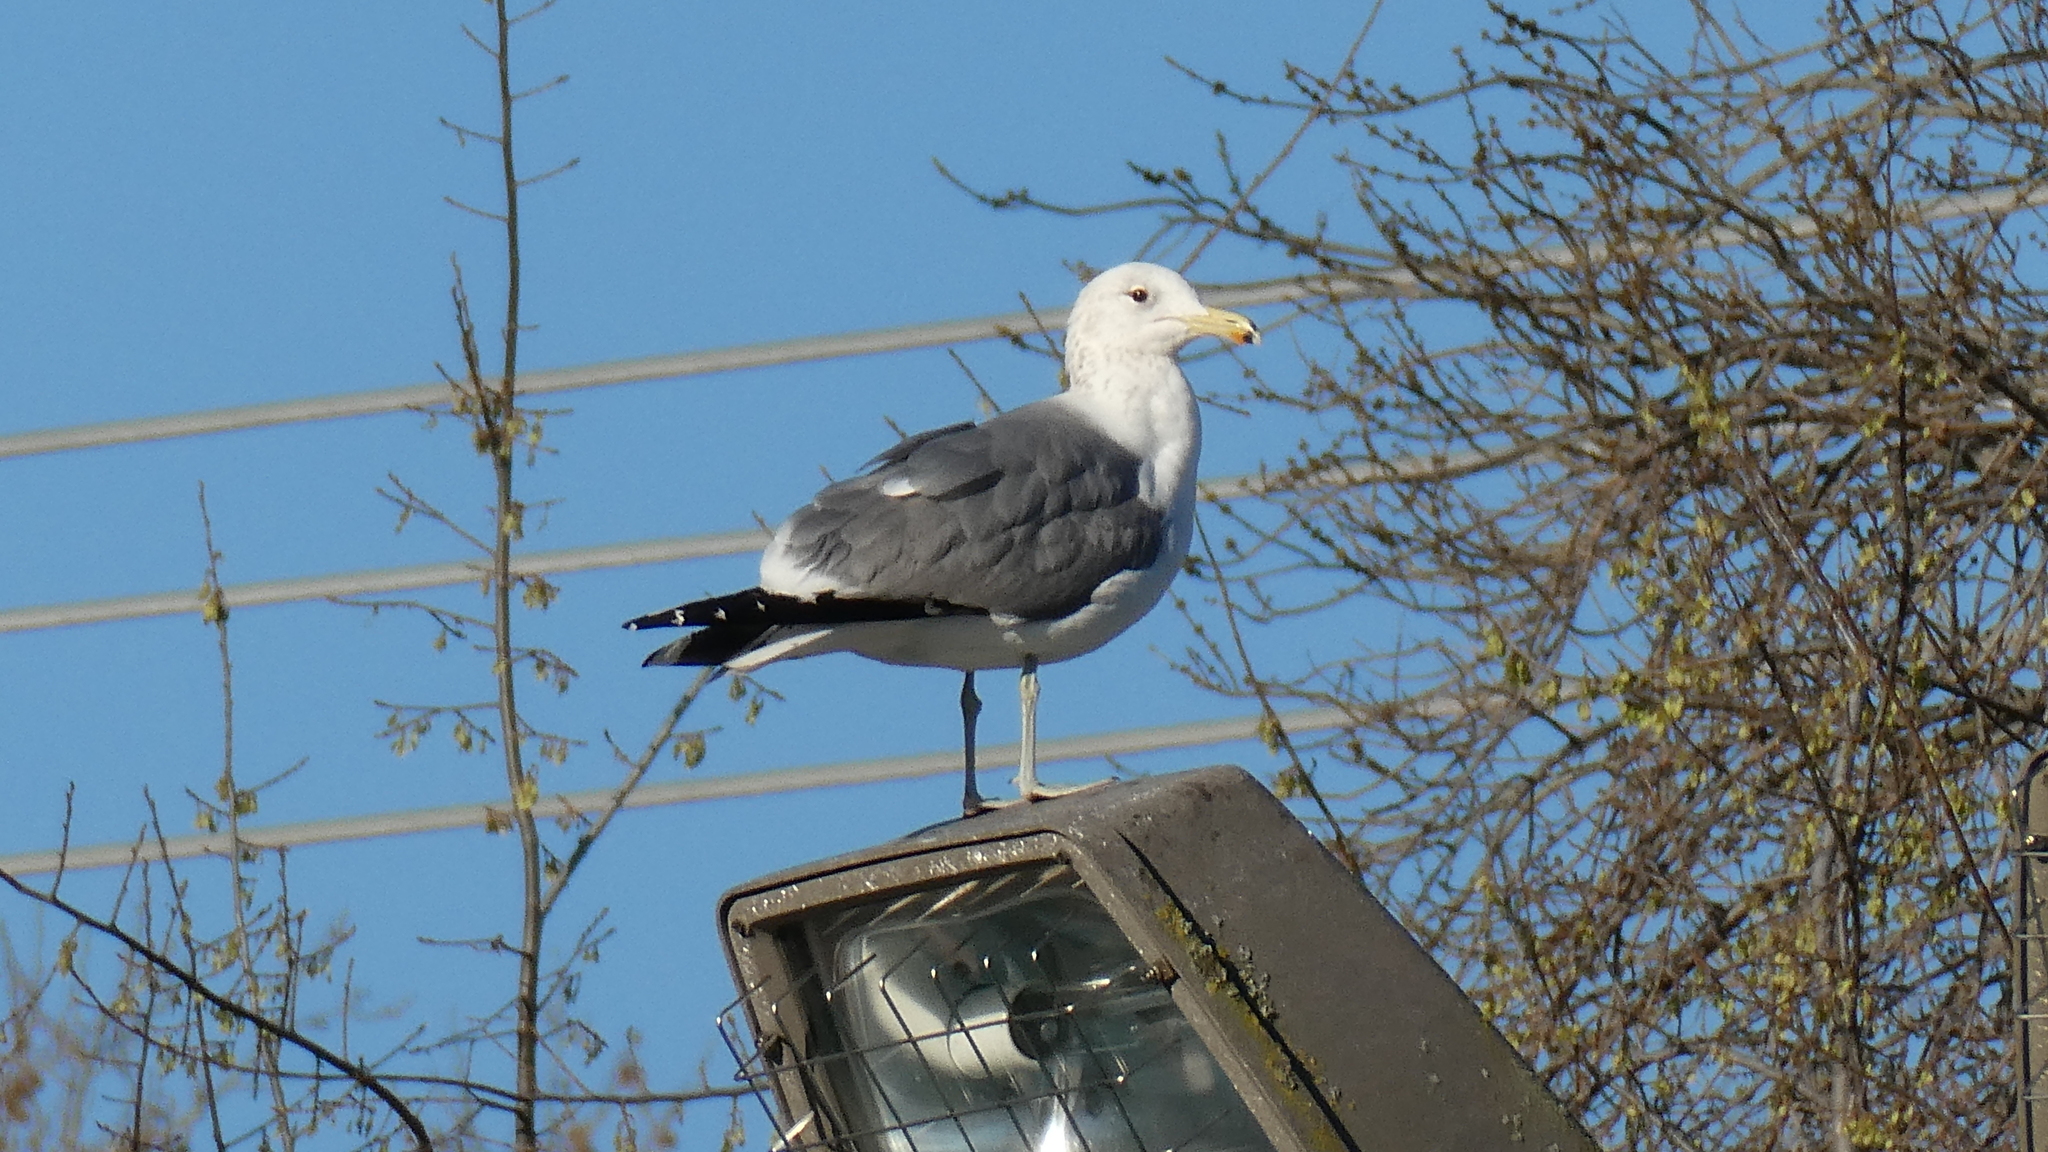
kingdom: Animalia
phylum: Chordata
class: Aves
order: Charadriiformes
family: Laridae
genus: Larus
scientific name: Larus californicus
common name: California gull
